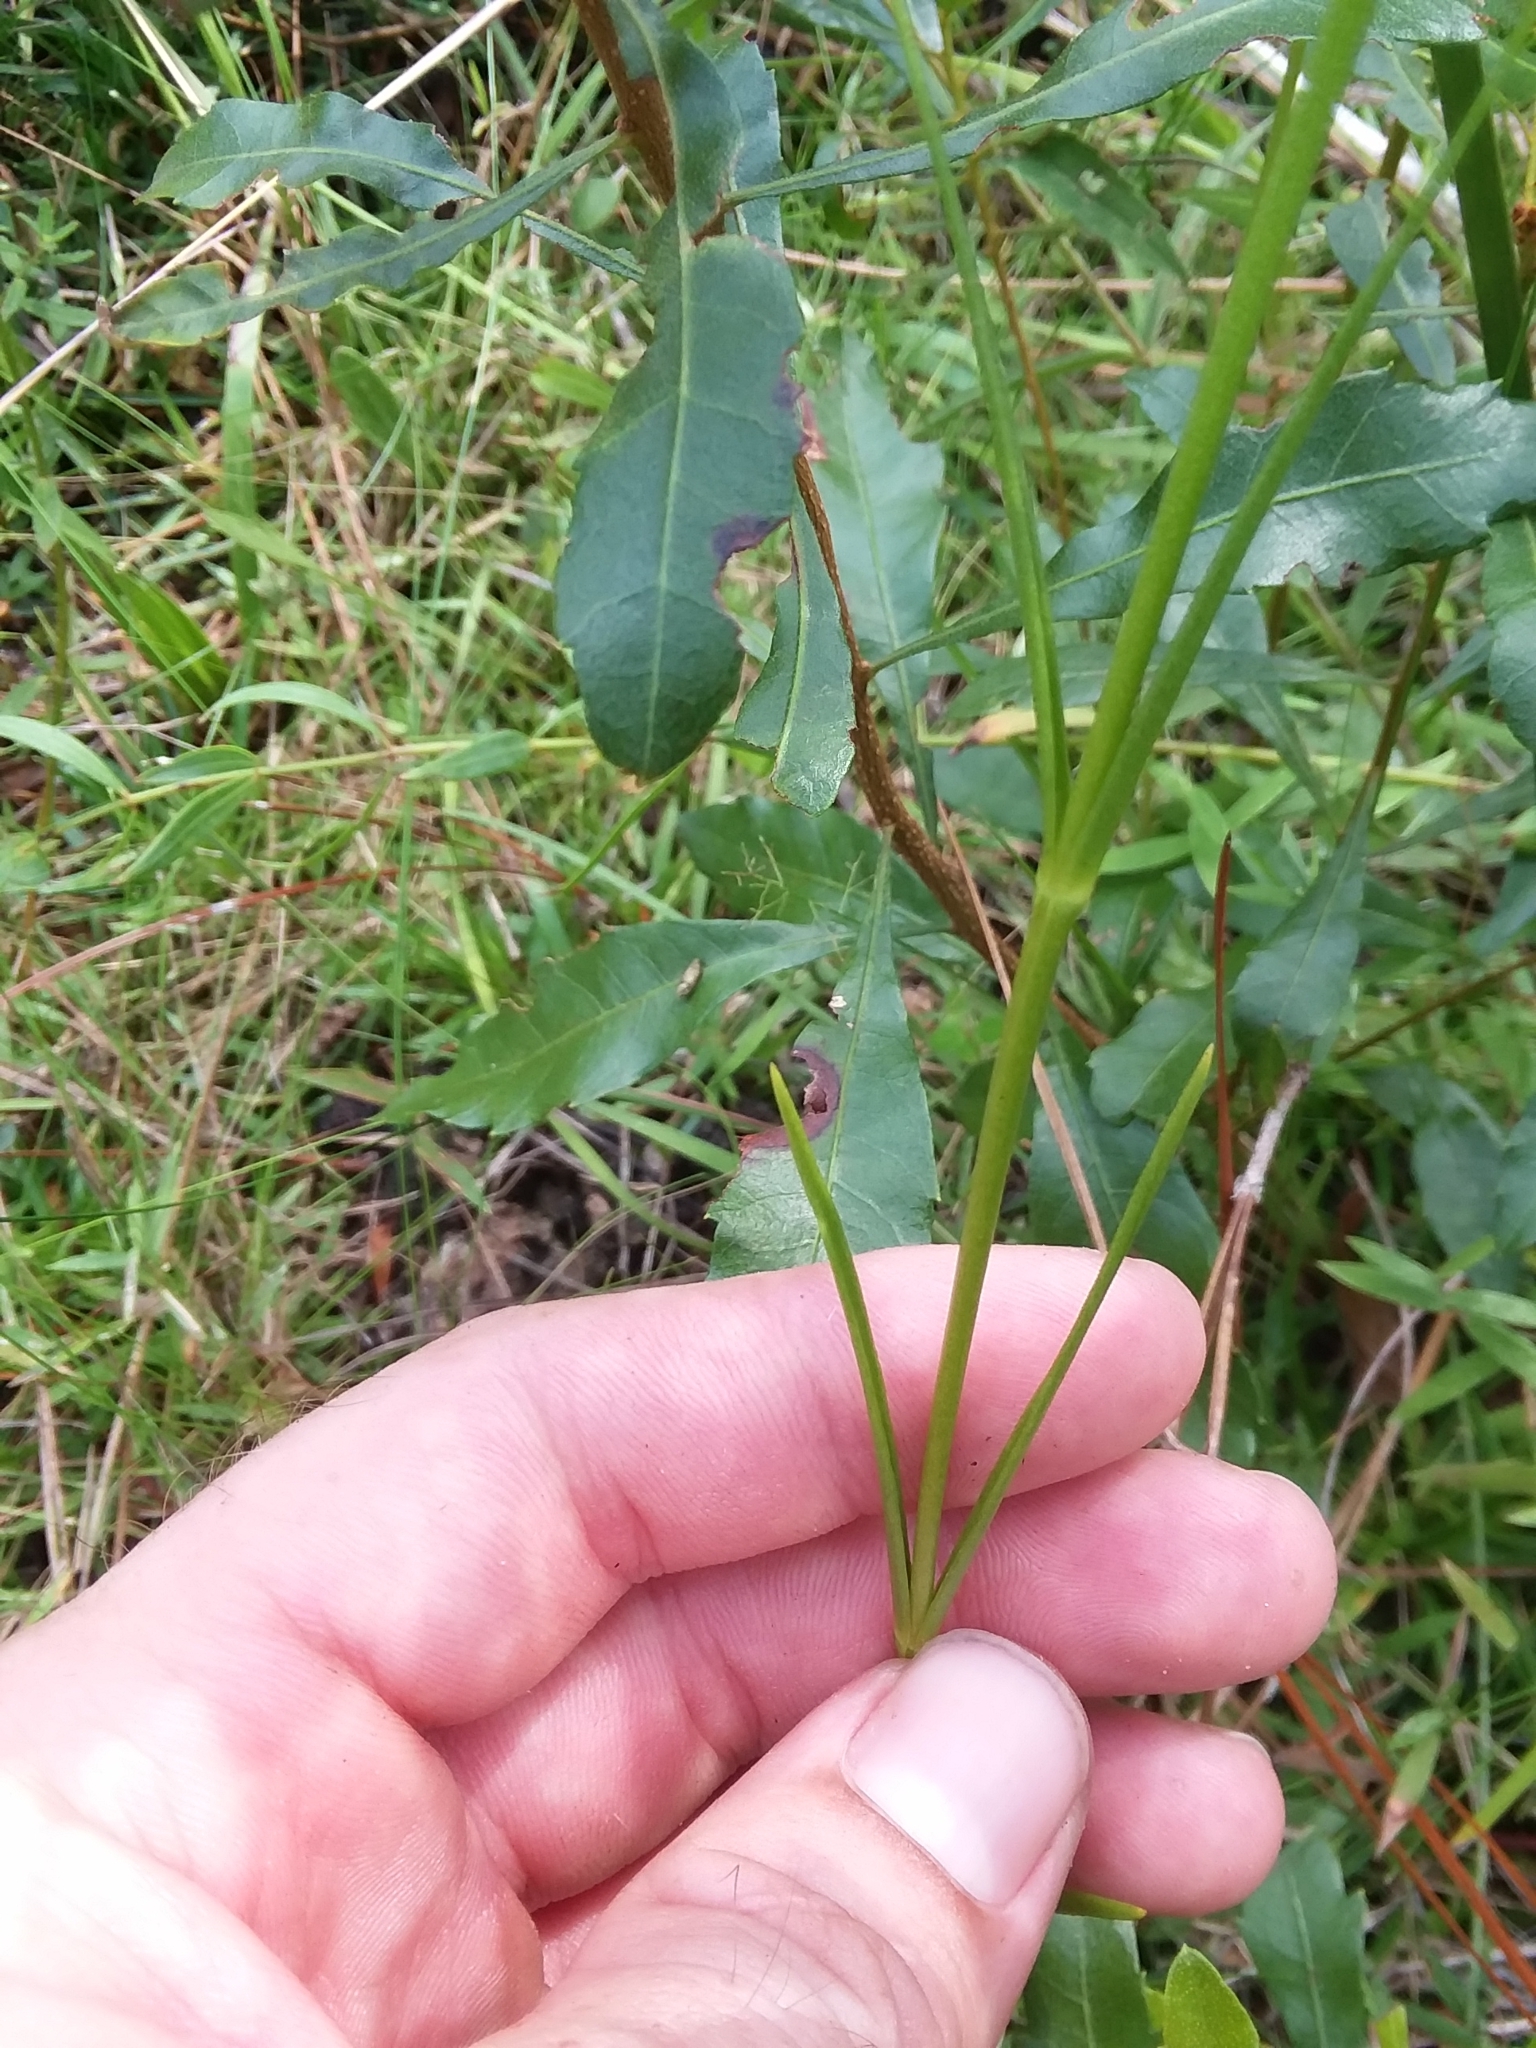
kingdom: Plantae
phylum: Tracheophyta
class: Magnoliopsida
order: Gentianales
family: Gentianaceae
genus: Sabatia
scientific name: Sabatia gentianoides
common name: Pinewoods rose-gentian
